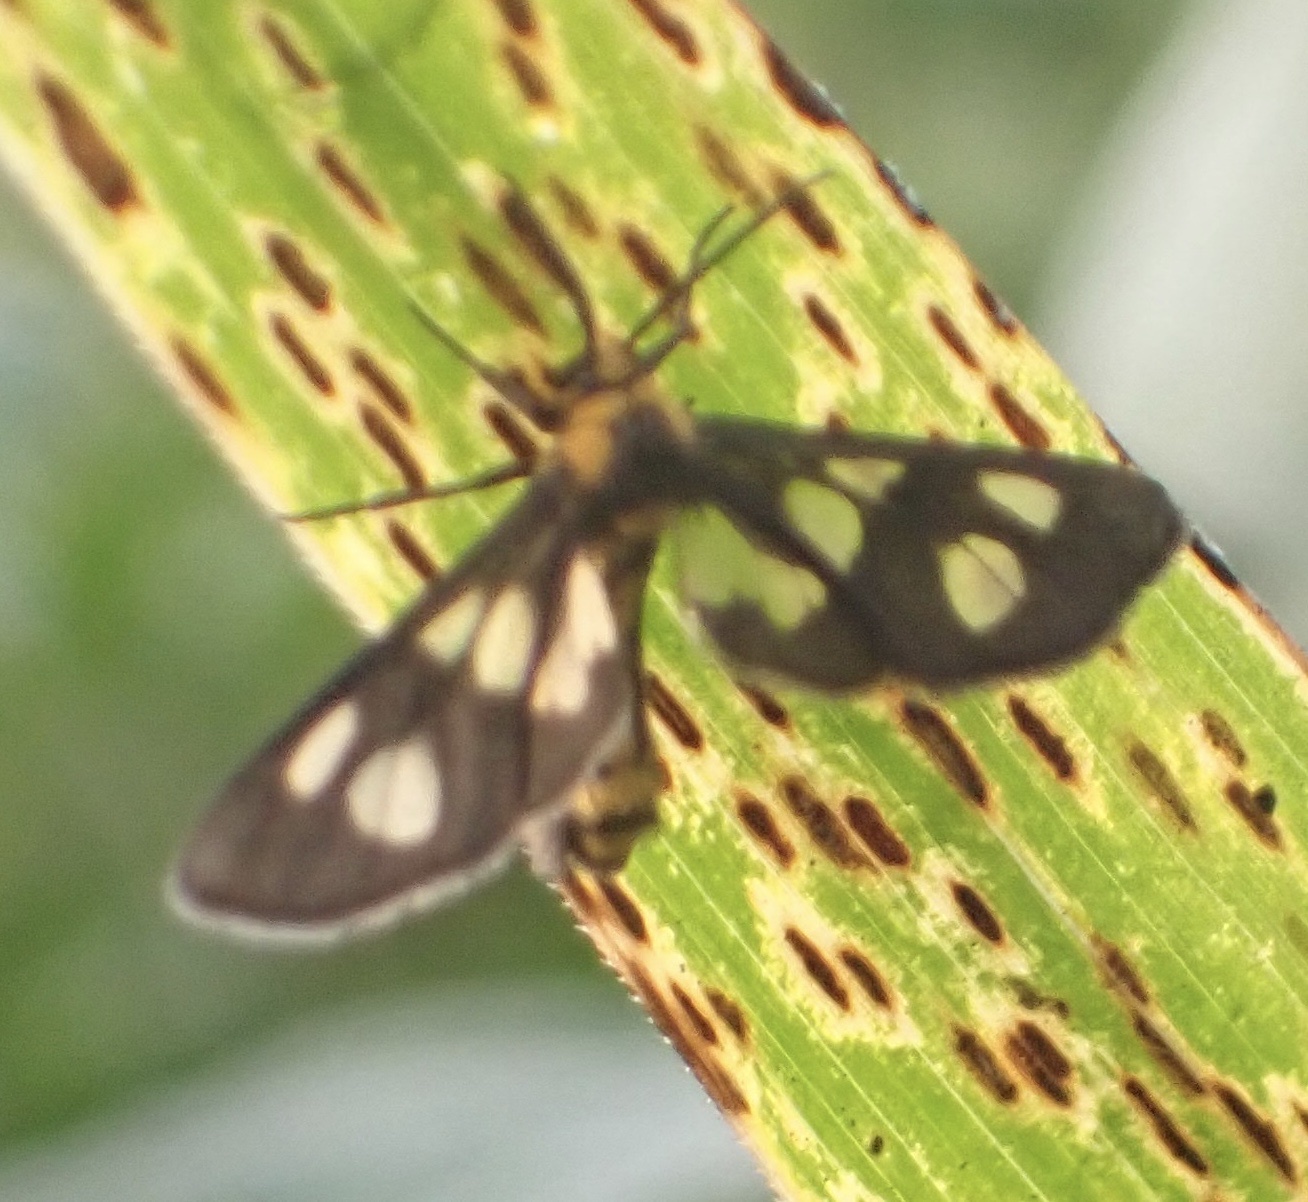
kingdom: Animalia
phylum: Arthropoda
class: Insecta
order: Lepidoptera
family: Erebidae
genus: Ceryx
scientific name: Ceryx bivittata
